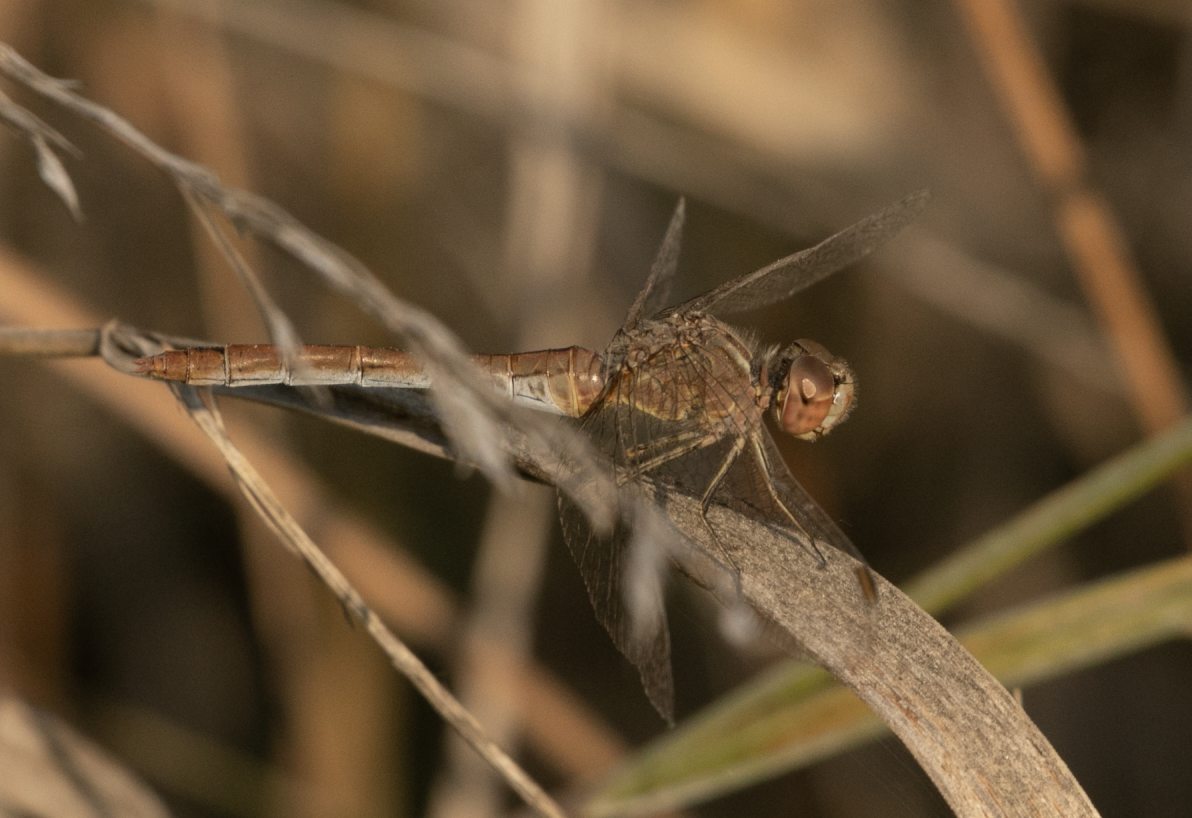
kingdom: Animalia
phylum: Arthropoda
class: Insecta
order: Odonata
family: Libellulidae
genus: Sympetrum
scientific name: Sympetrum meridionale
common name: Southern darter
